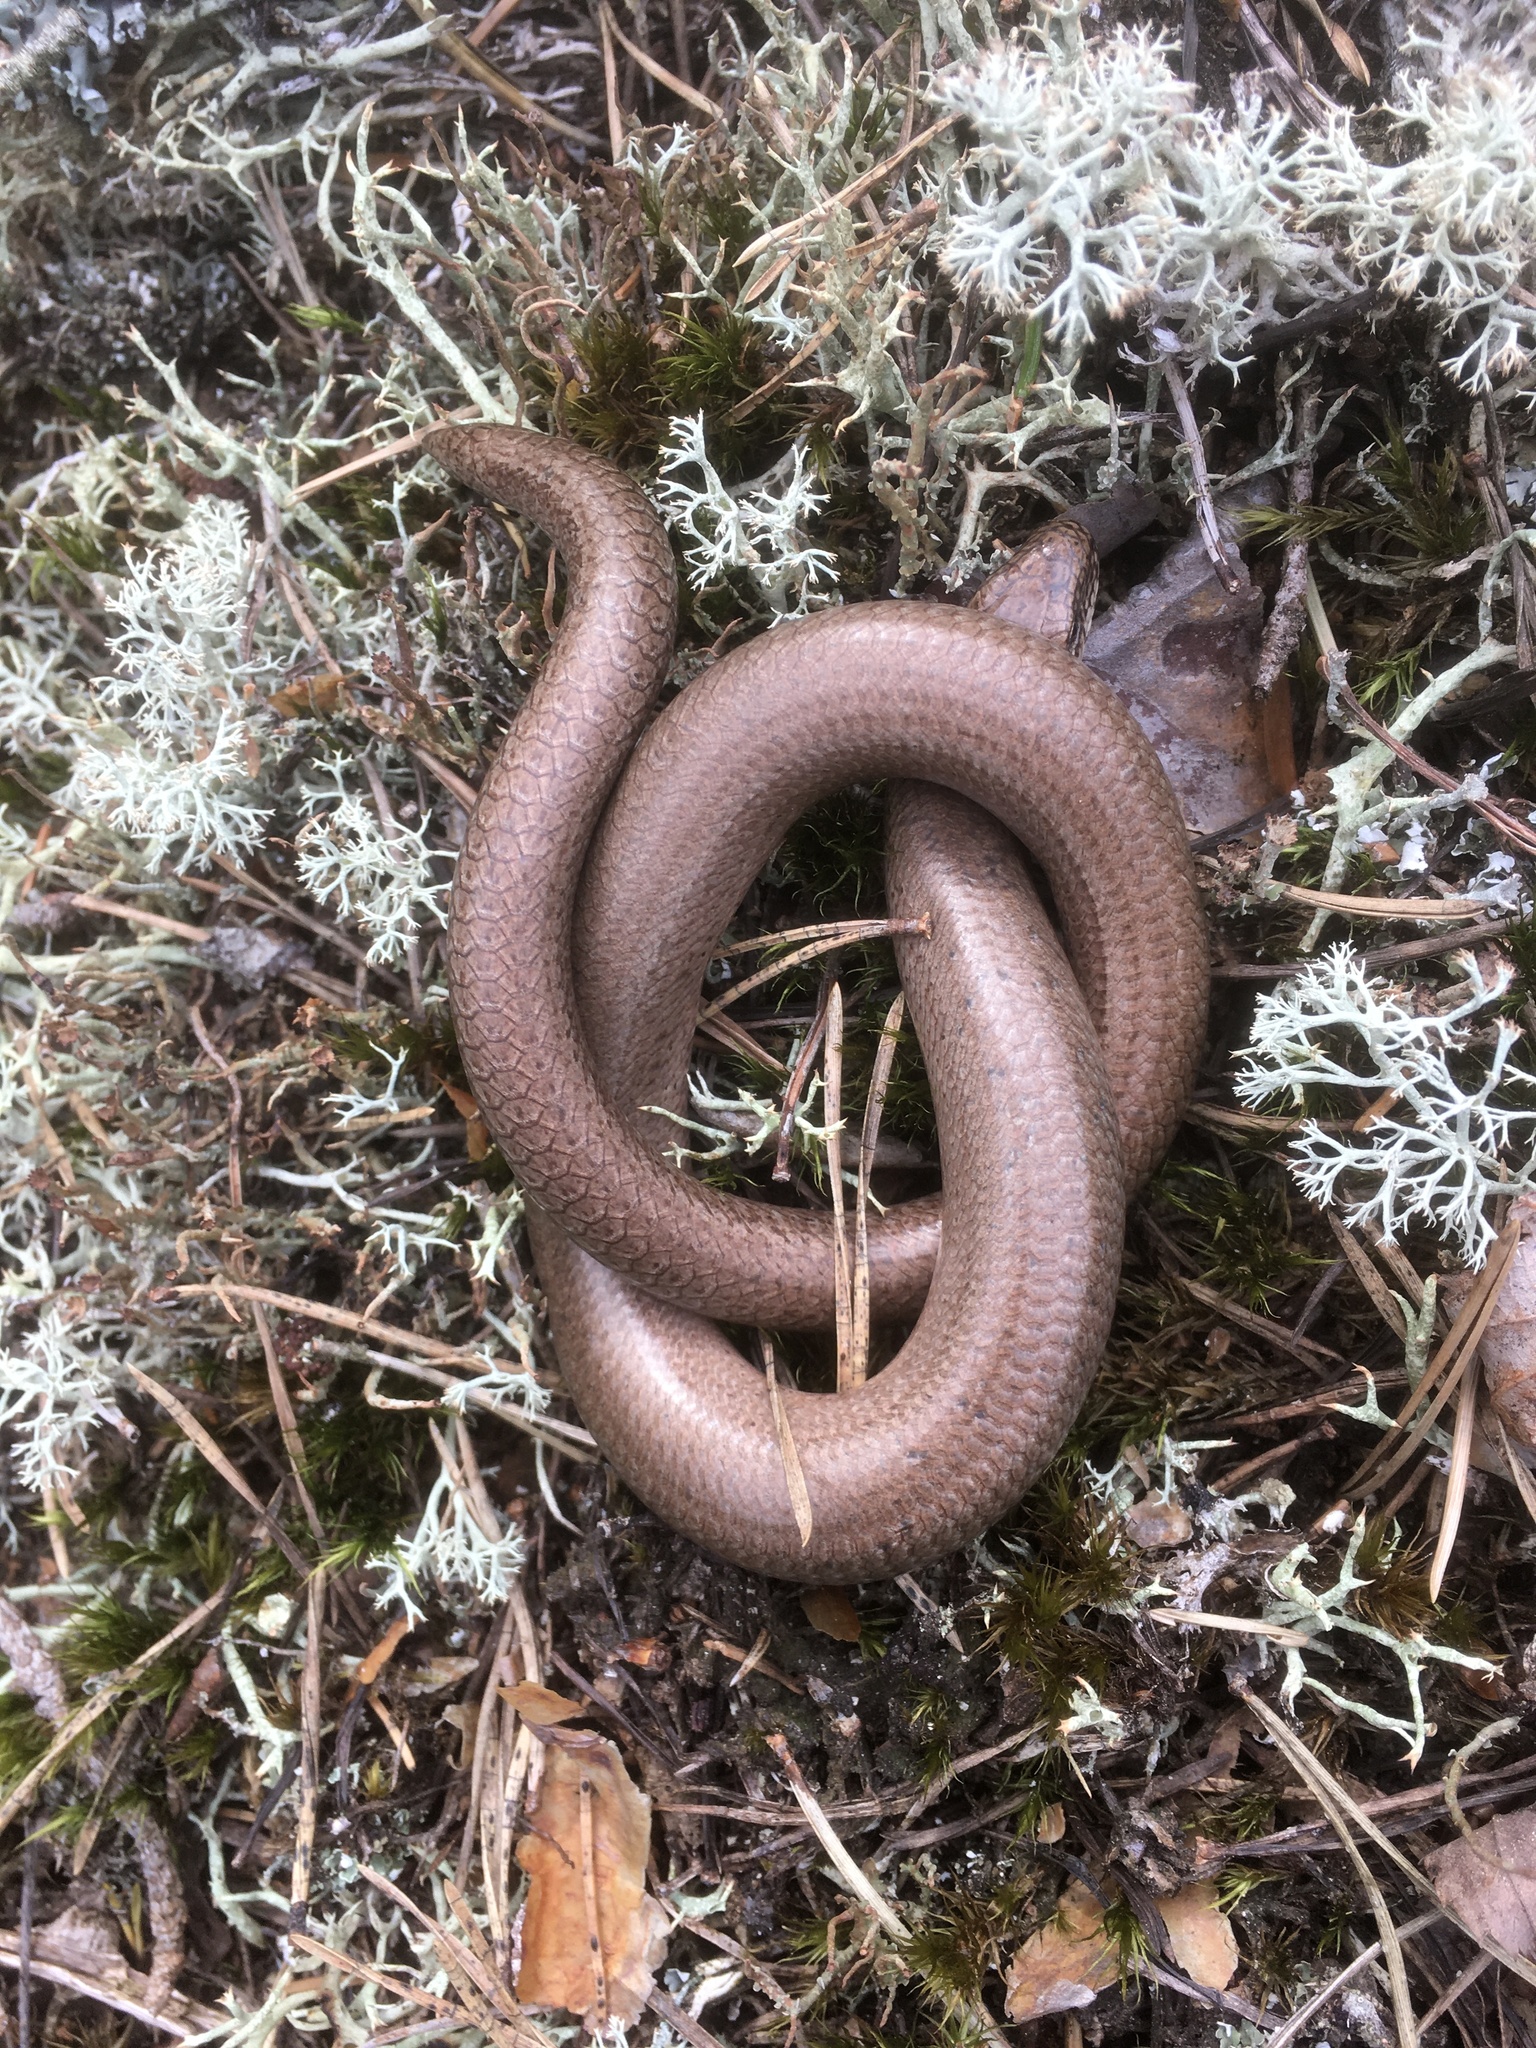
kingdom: Animalia
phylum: Chordata
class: Squamata
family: Anguidae
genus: Anguis
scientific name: Anguis fragilis
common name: Slow worm
